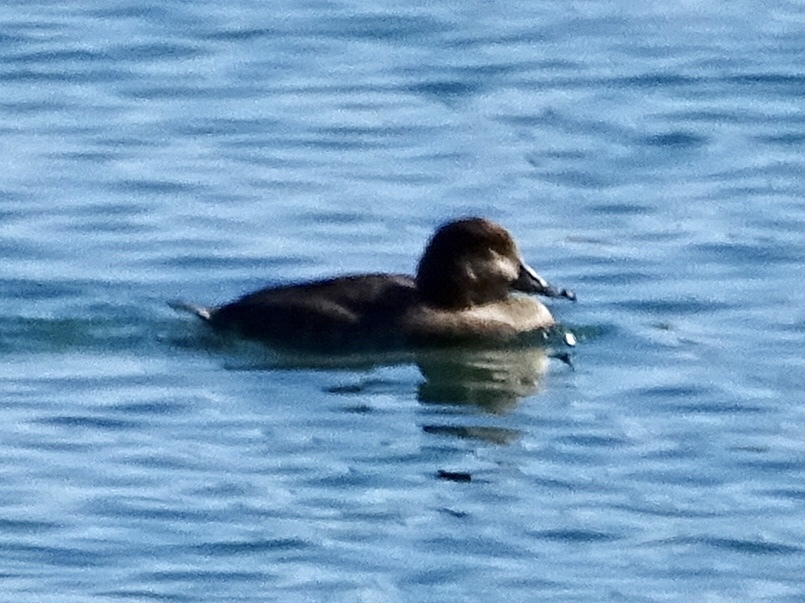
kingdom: Animalia
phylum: Chordata
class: Aves
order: Anseriformes
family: Anatidae
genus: Aythya
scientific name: Aythya americana
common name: Redhead
